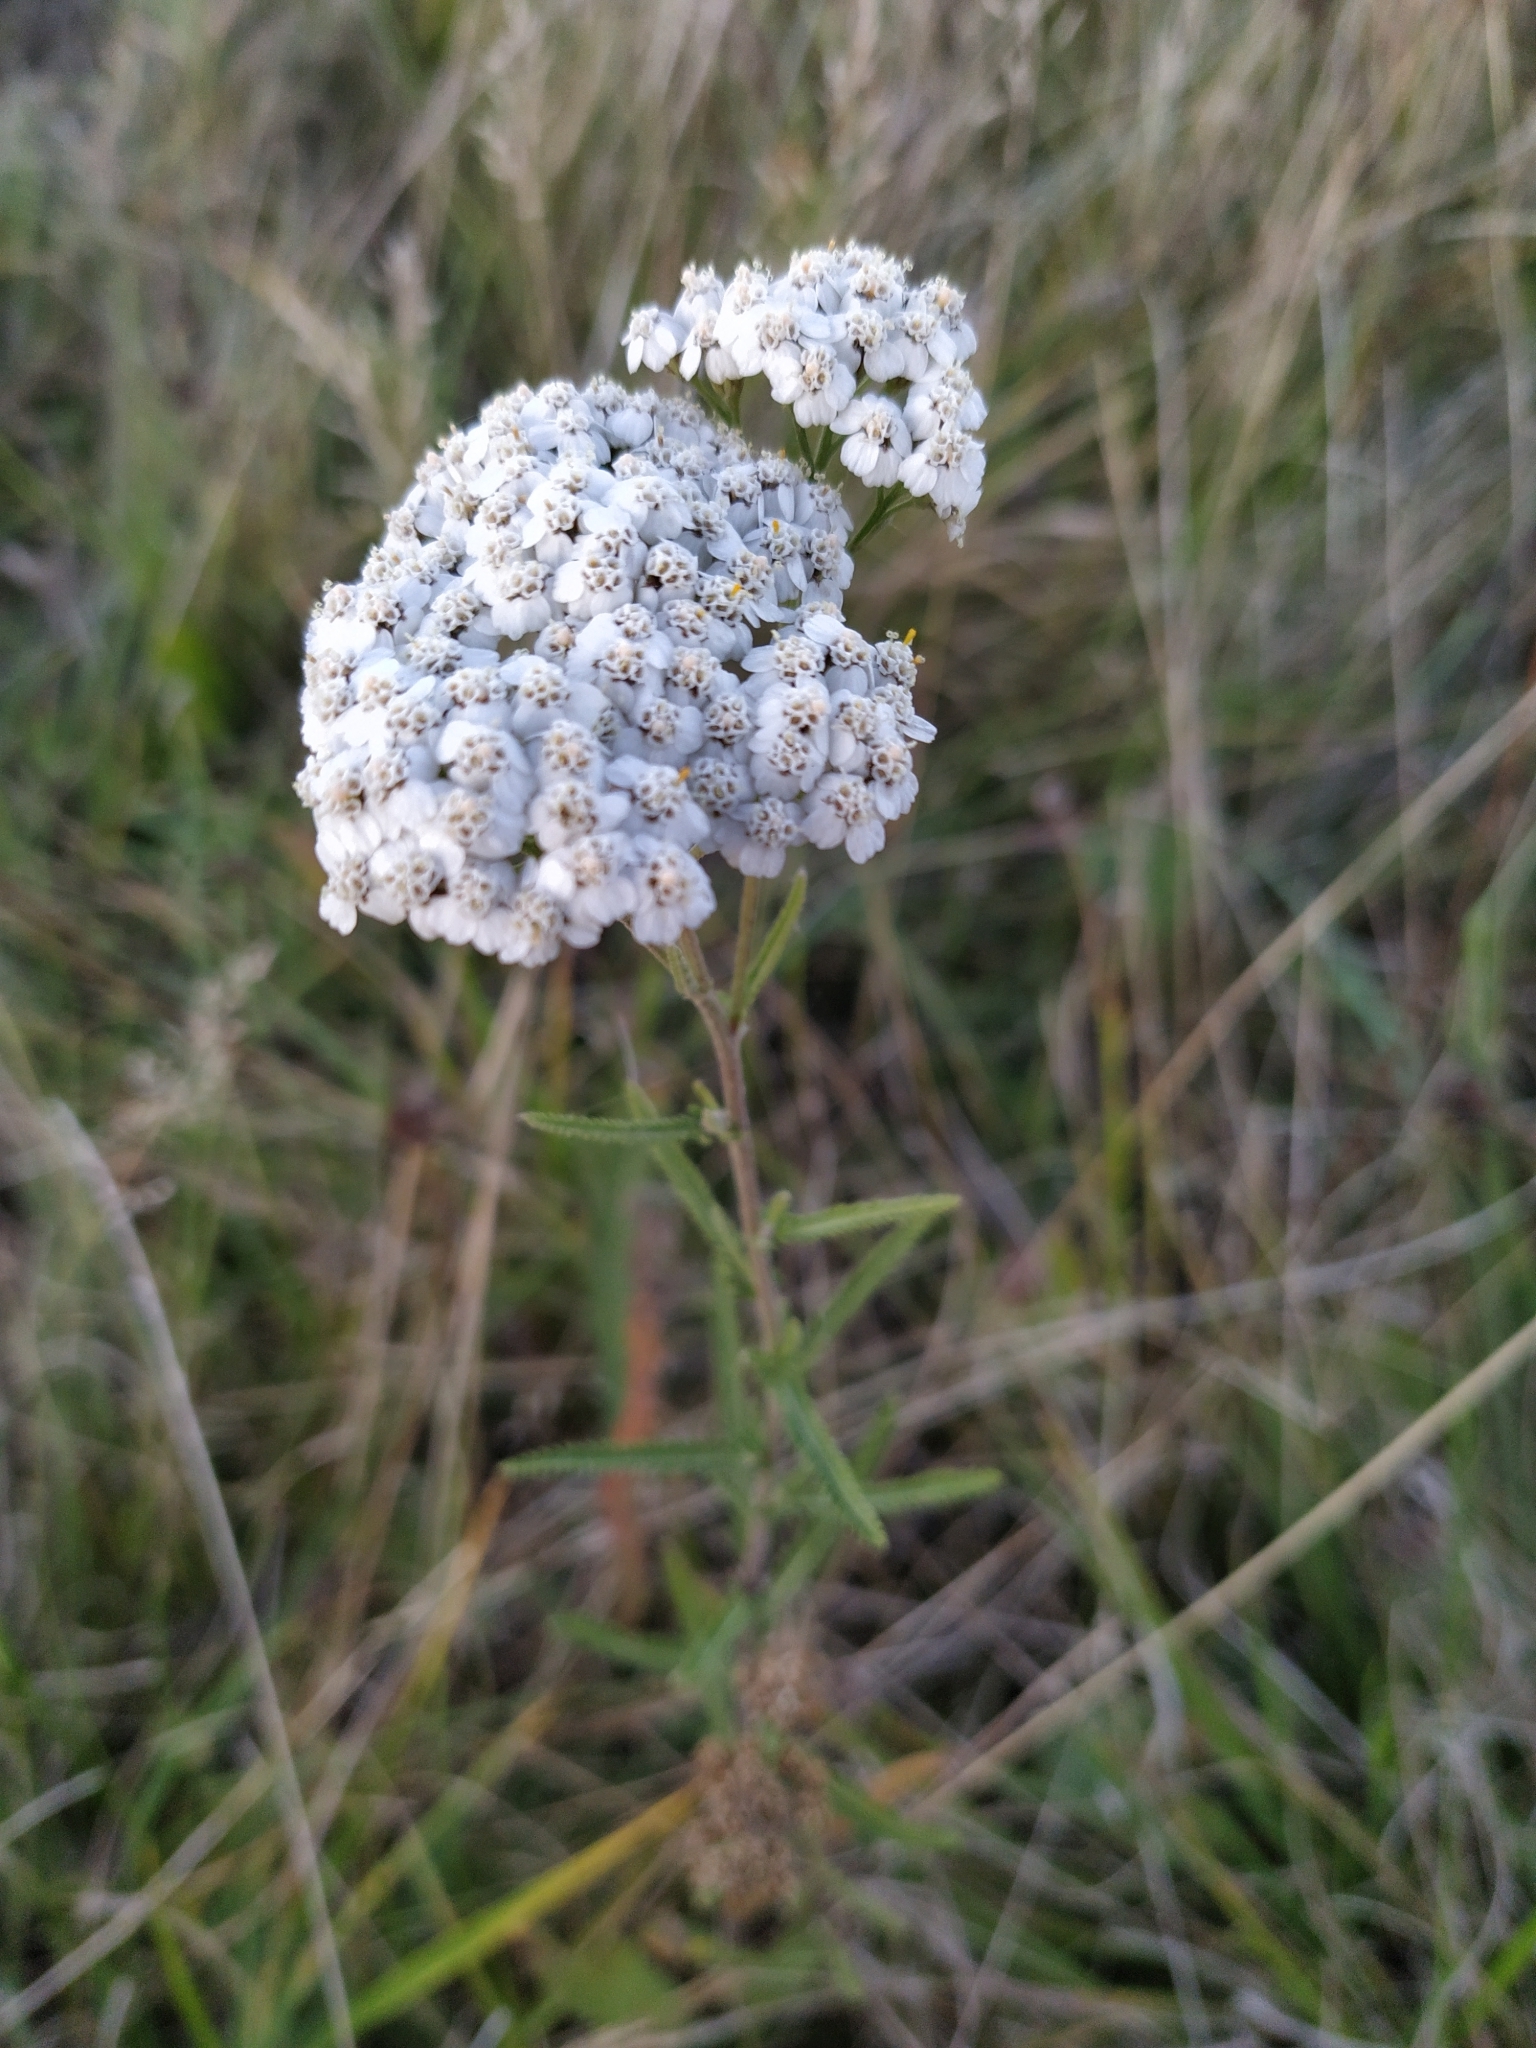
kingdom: Plantae
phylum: Tracheophyta
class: Magnoliopsida
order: Asterales
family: Asteraceae
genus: Achillea
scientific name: Achillea millefolium
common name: Yarrow
